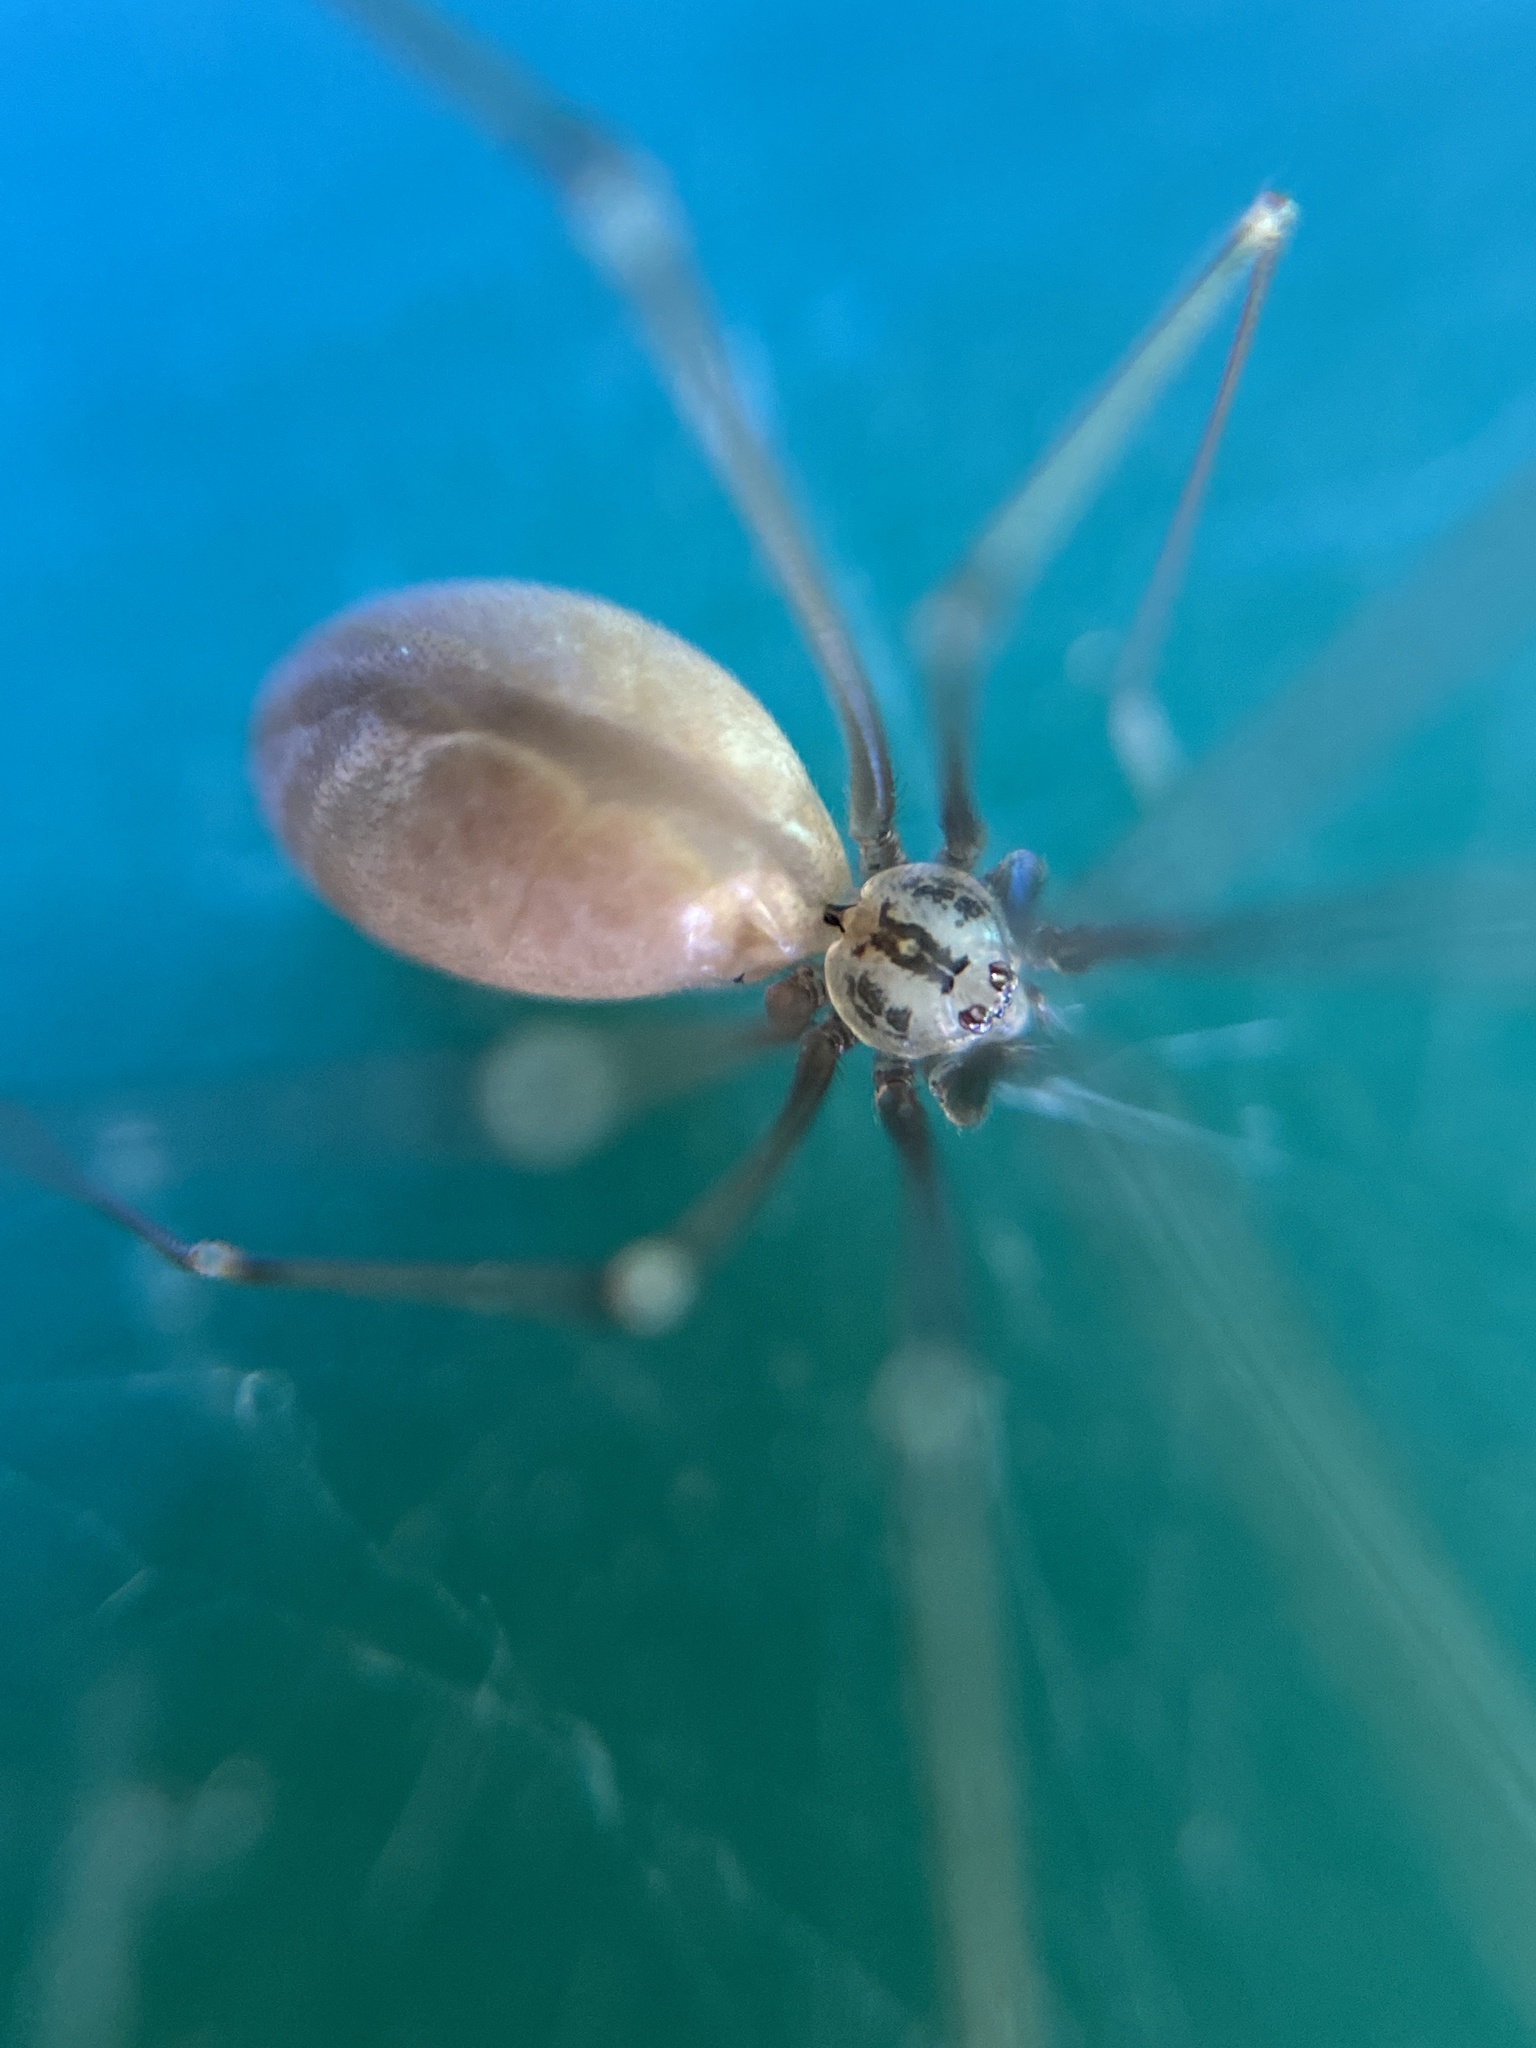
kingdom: Animalia
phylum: Arthropoda
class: Arachnida
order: Araneae
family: Pholcidae
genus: Pholcus
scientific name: Pholcus opilionoides
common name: Daddylongleg spider
